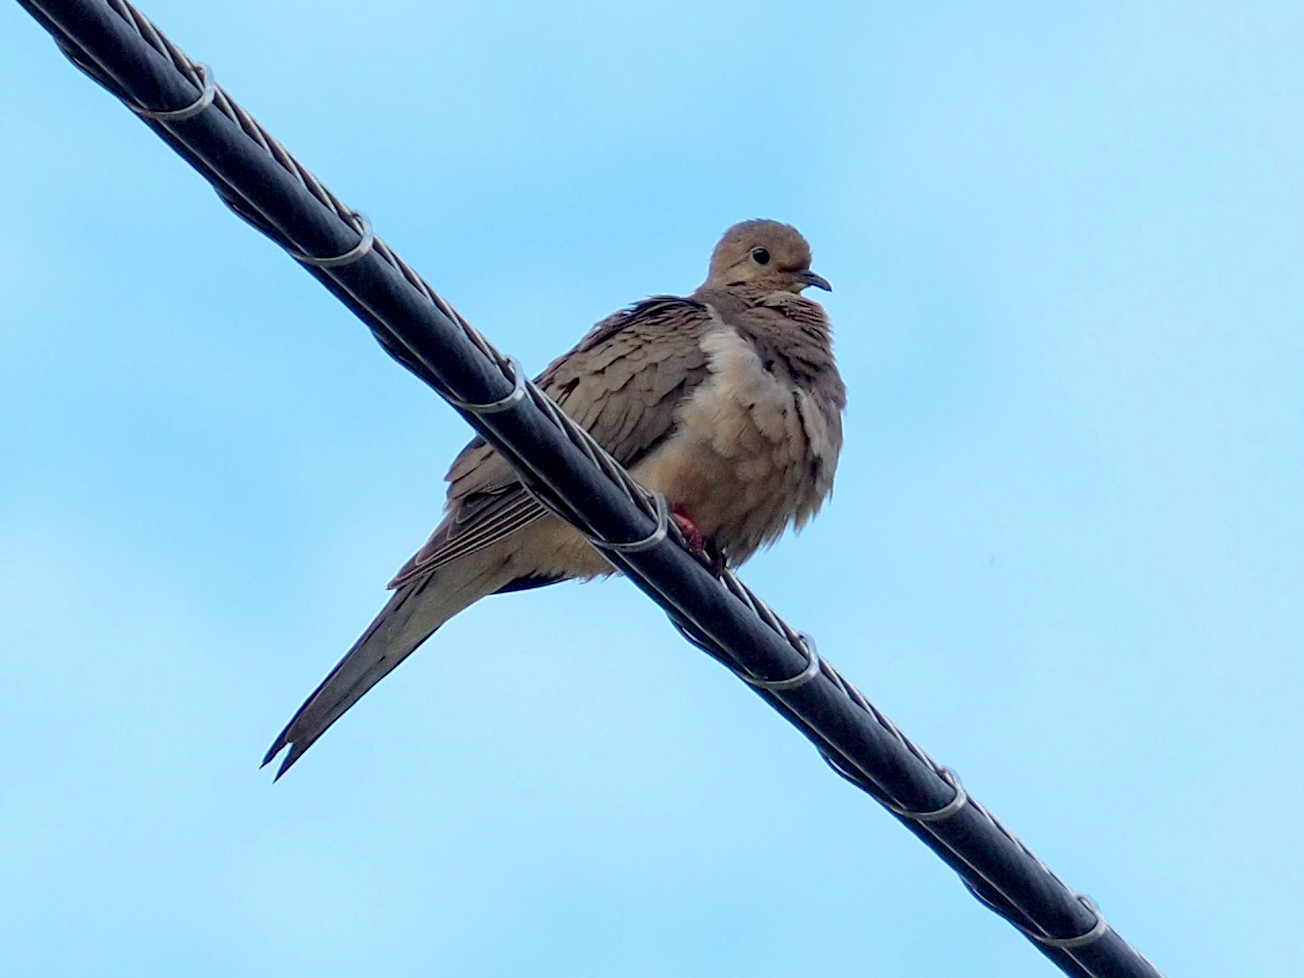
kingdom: Animalia
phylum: Chordata
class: Aves
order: Columbiformes
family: Columbidae
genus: Zenaida
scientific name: Zenaida macroura
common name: Mourning dove
